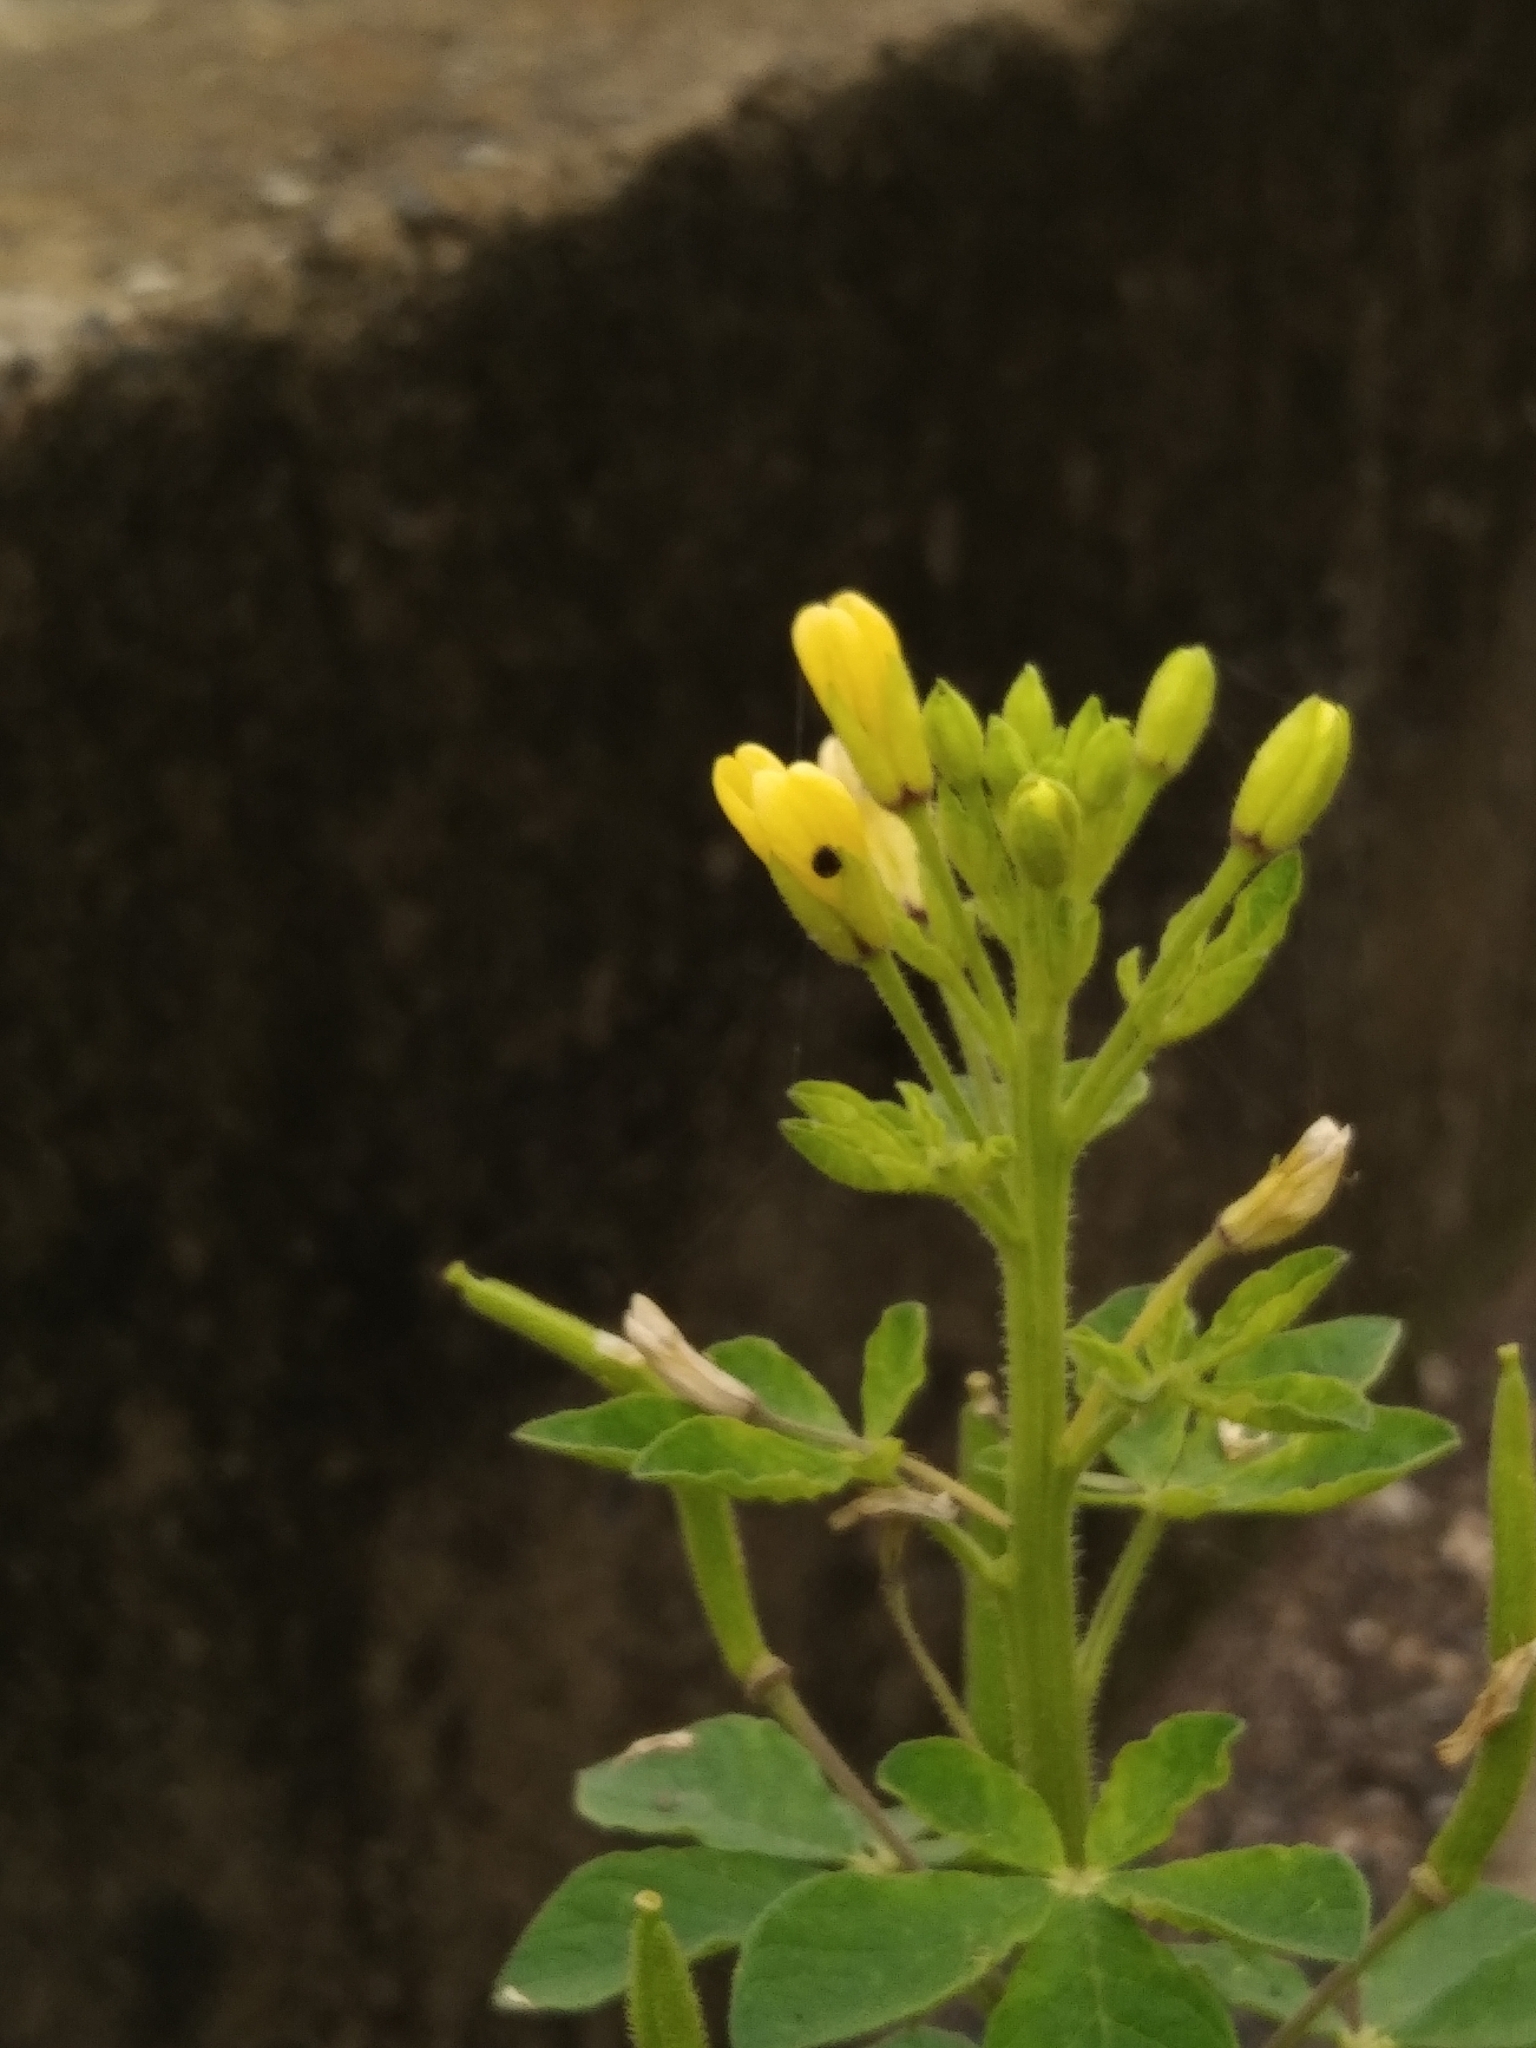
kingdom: Plantae
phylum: Tracheophyta
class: Magnoliopsida
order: Brassicales
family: Cleomaceae
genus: Arivela
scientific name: Arivela viscosa
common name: Asian spiderflower
